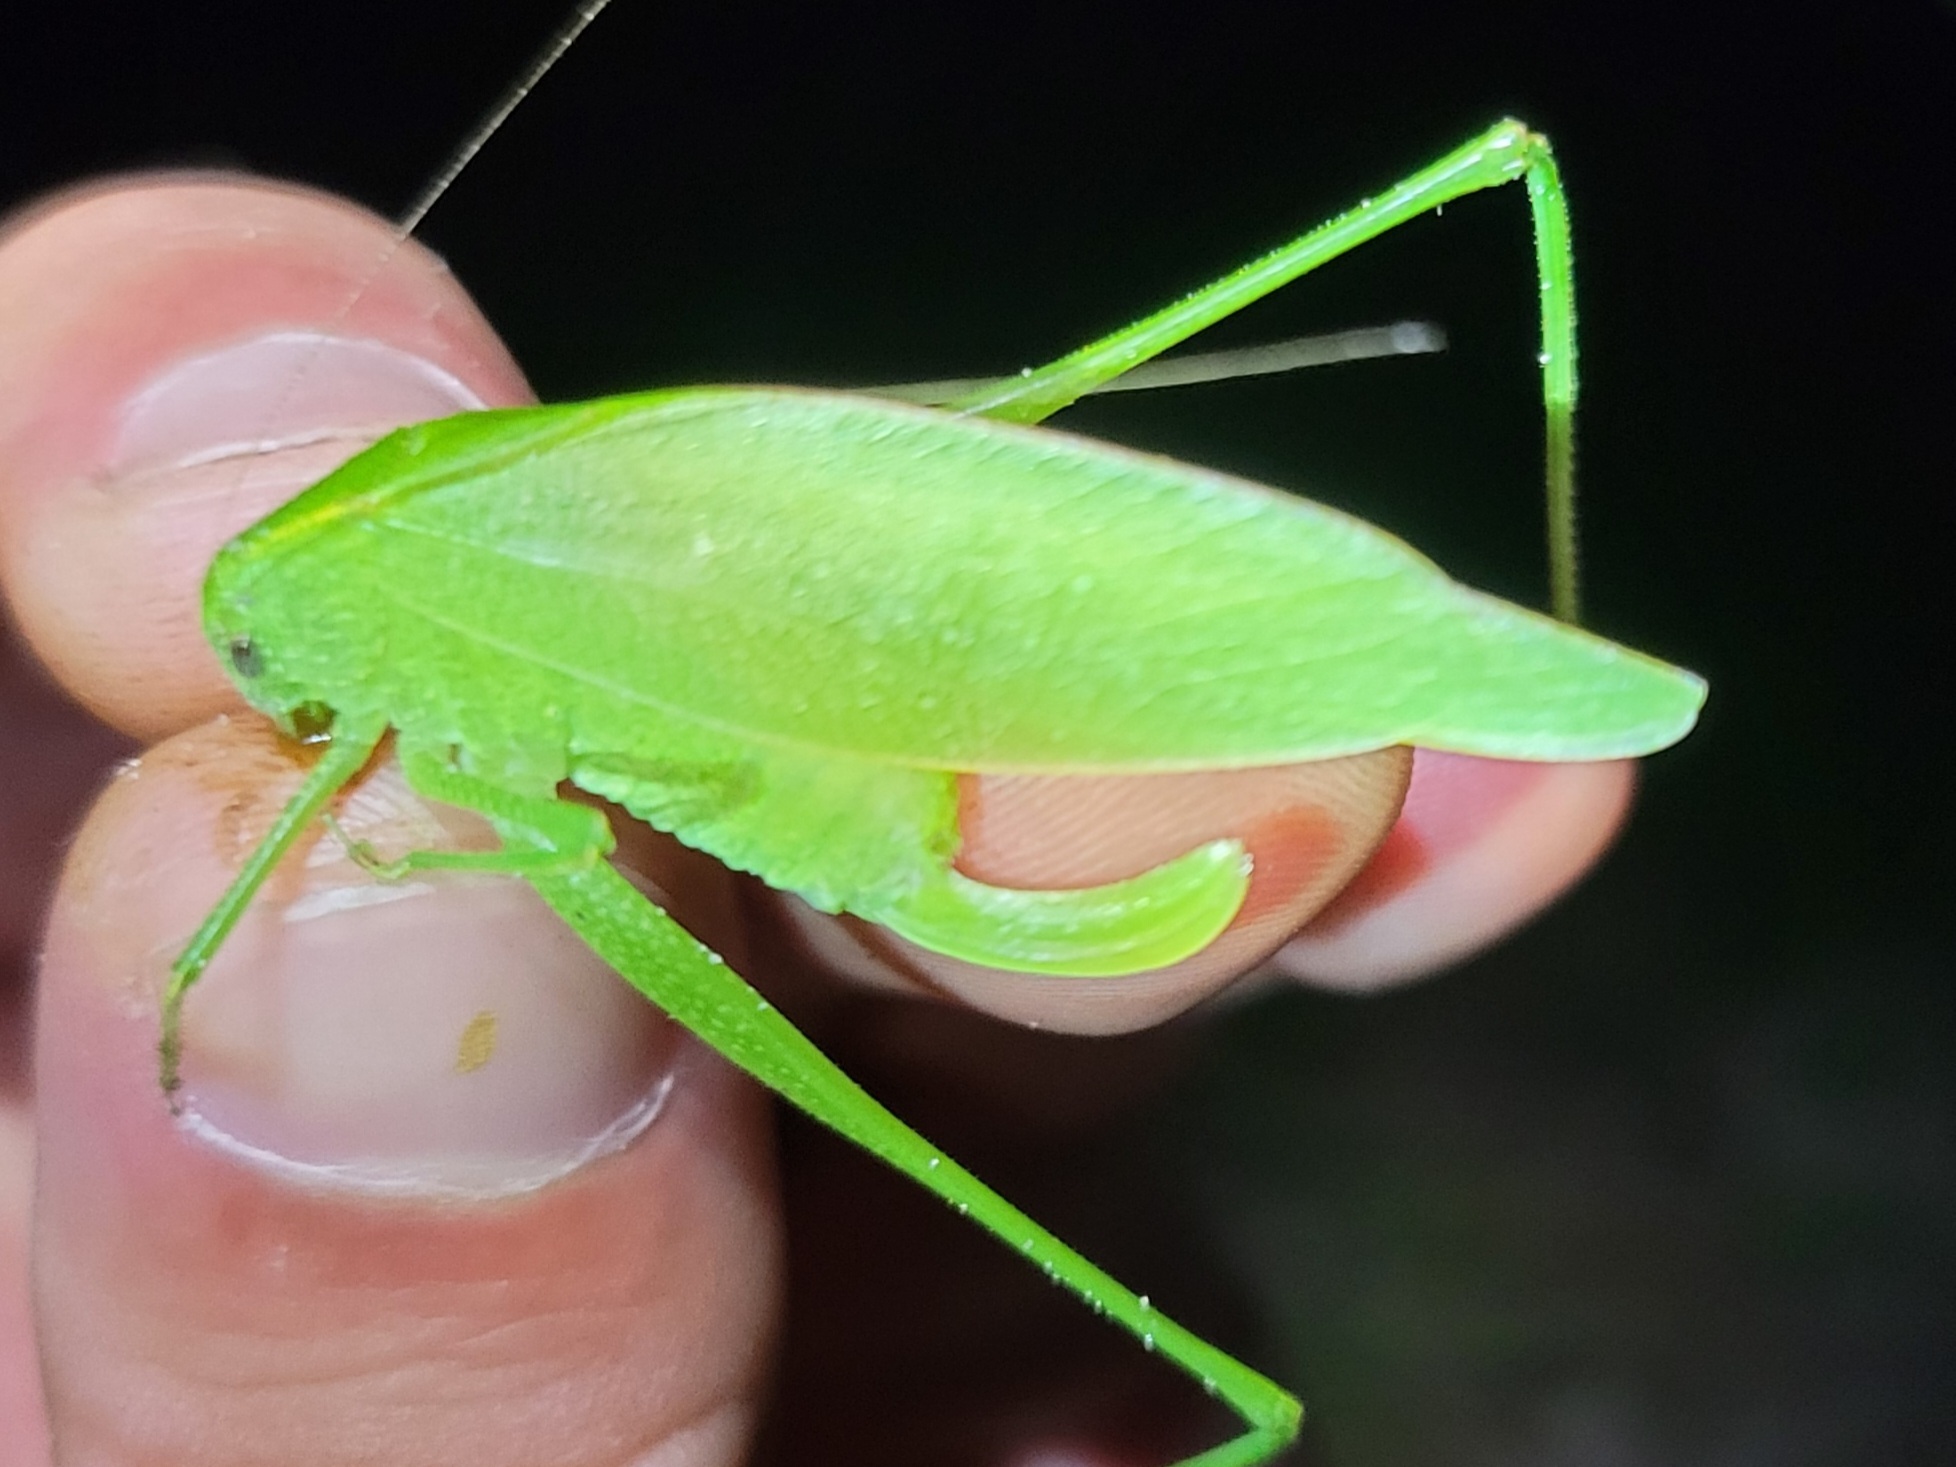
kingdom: Animalia
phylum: Arthropoda
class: Insecta
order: Orthoptera
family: Tettigoniidae
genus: Amblycorypha
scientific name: Amblycorypha arenicola
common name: Sandhill virtuoso katydid
